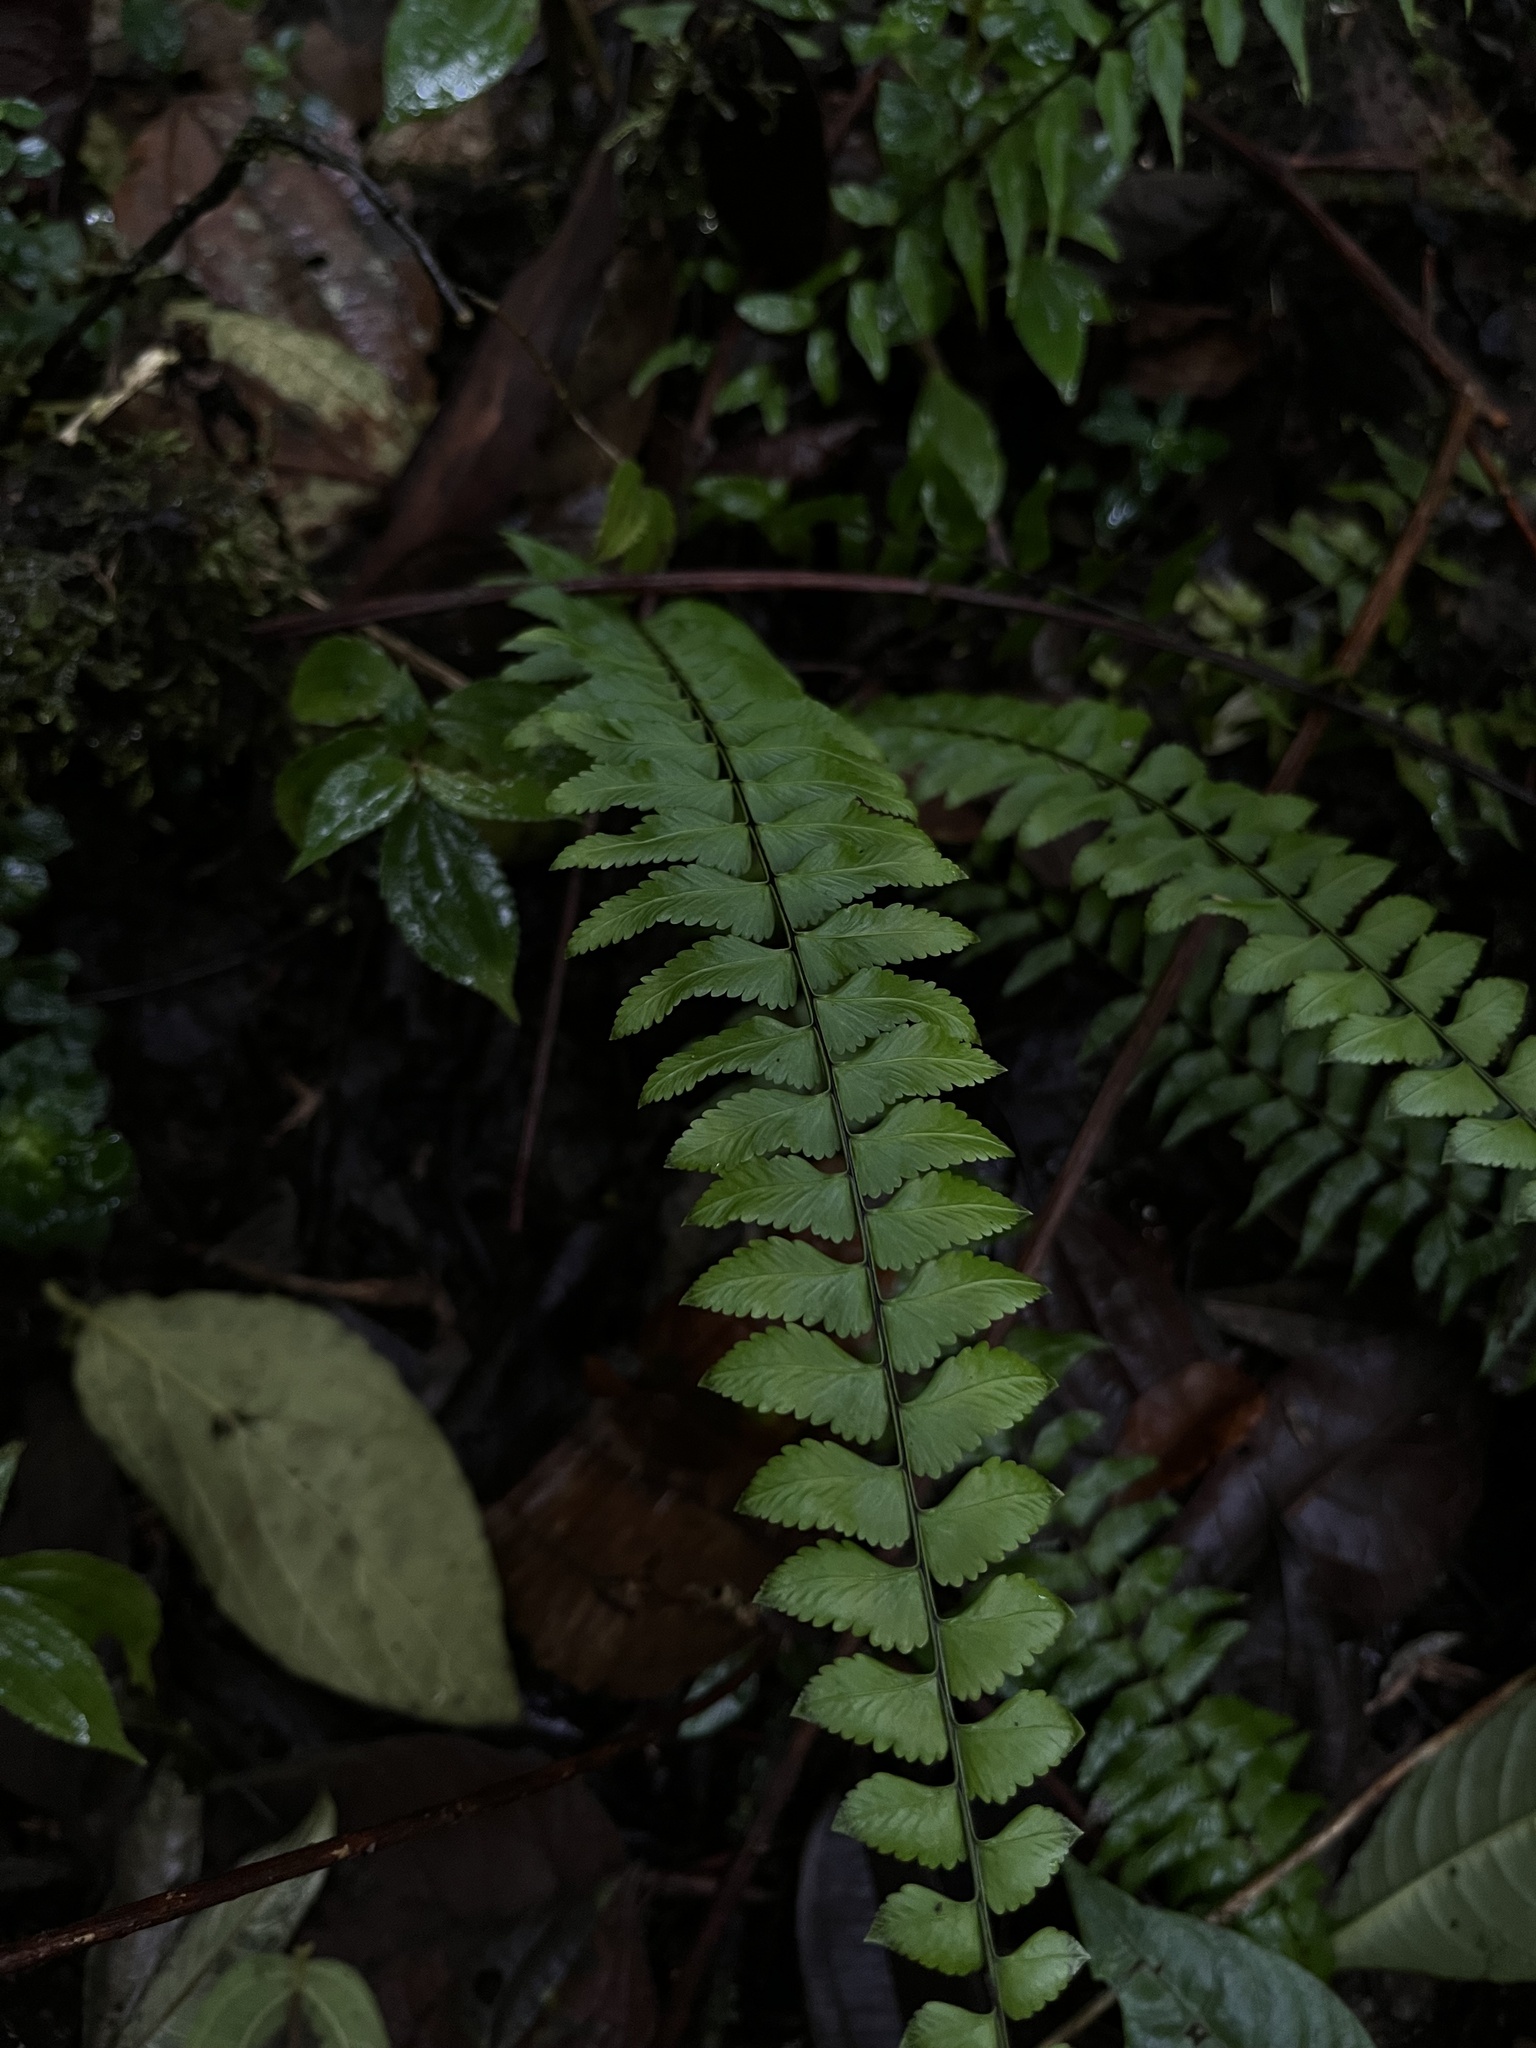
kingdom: Plantae
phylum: Tracheophyta
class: Polypodiopsida
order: Polypodiales
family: Aspleniaceae
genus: Asplenium
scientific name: Asplenium harpeodes
